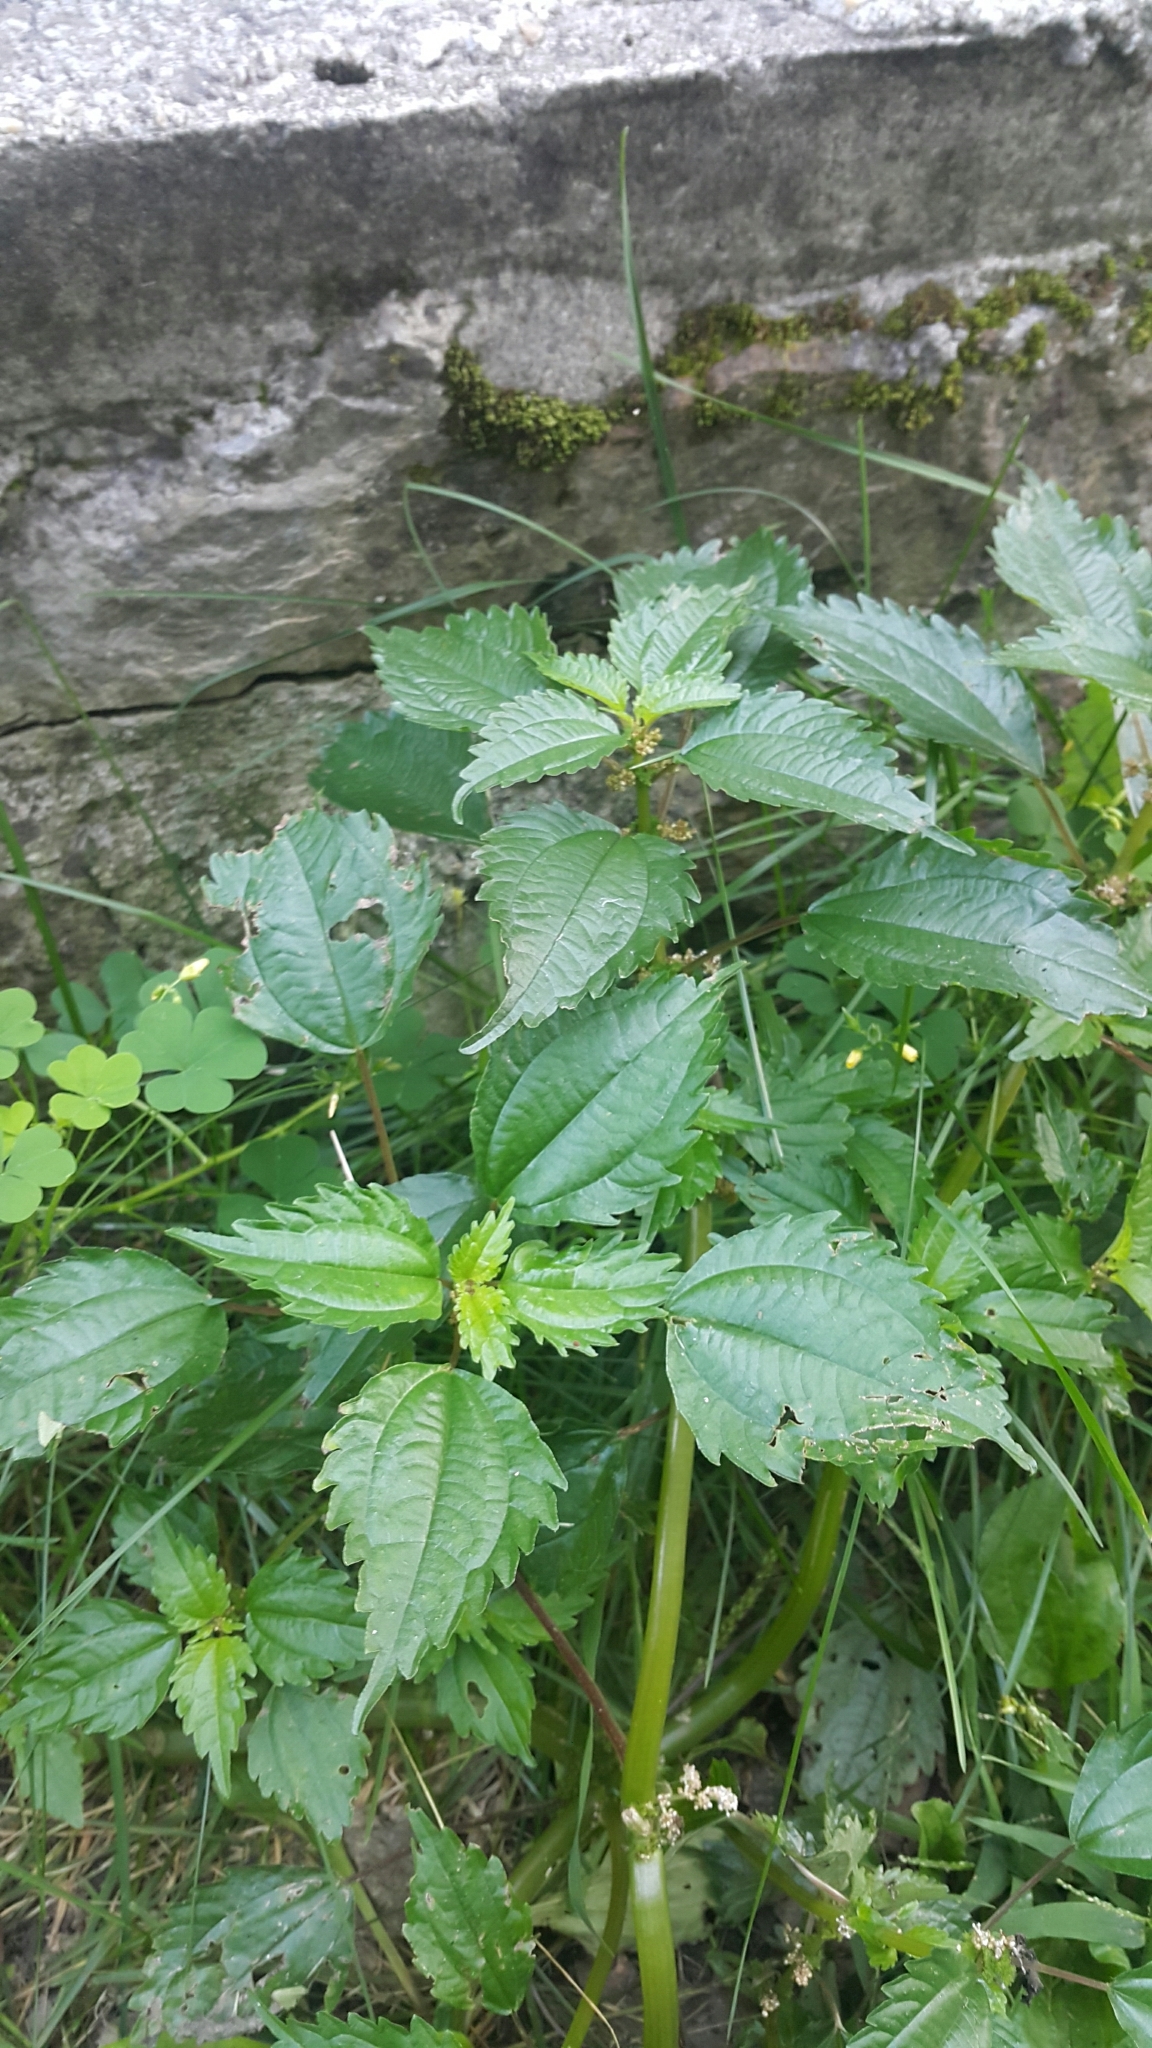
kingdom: Plantae
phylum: Tracheophyta
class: Magnoliopsida
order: Rosales
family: Urticaceae
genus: Pilea
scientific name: Pilea pumila
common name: Clearweed
